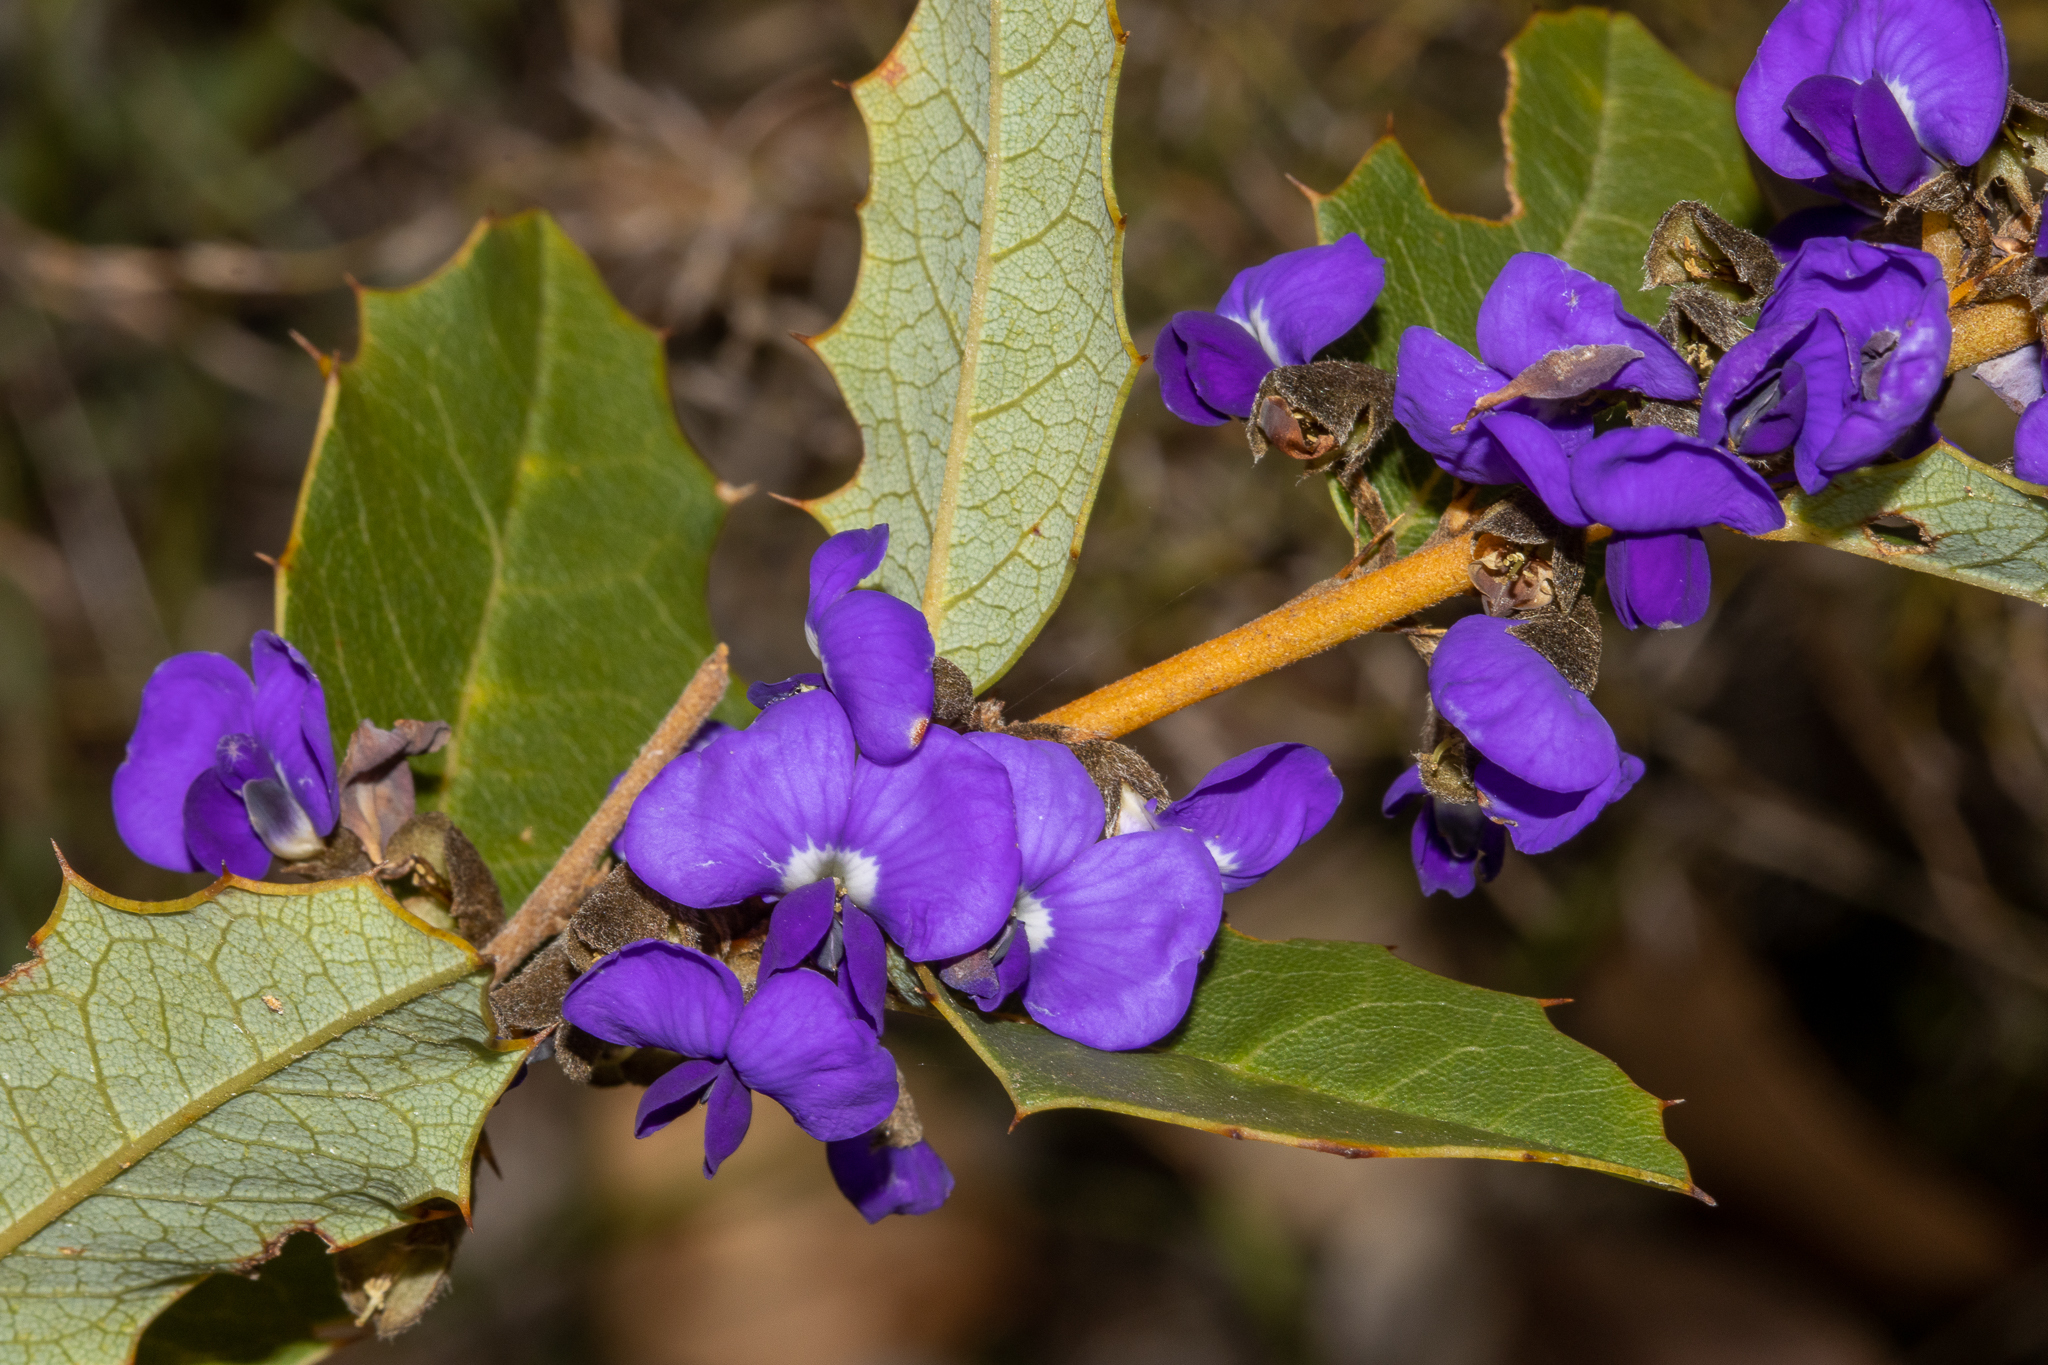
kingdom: Plantae
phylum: Tracheophyta
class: Magnoliopsida
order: Fabales
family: Fabaceae
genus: Hovea
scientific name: Hovea chorizemifolia
